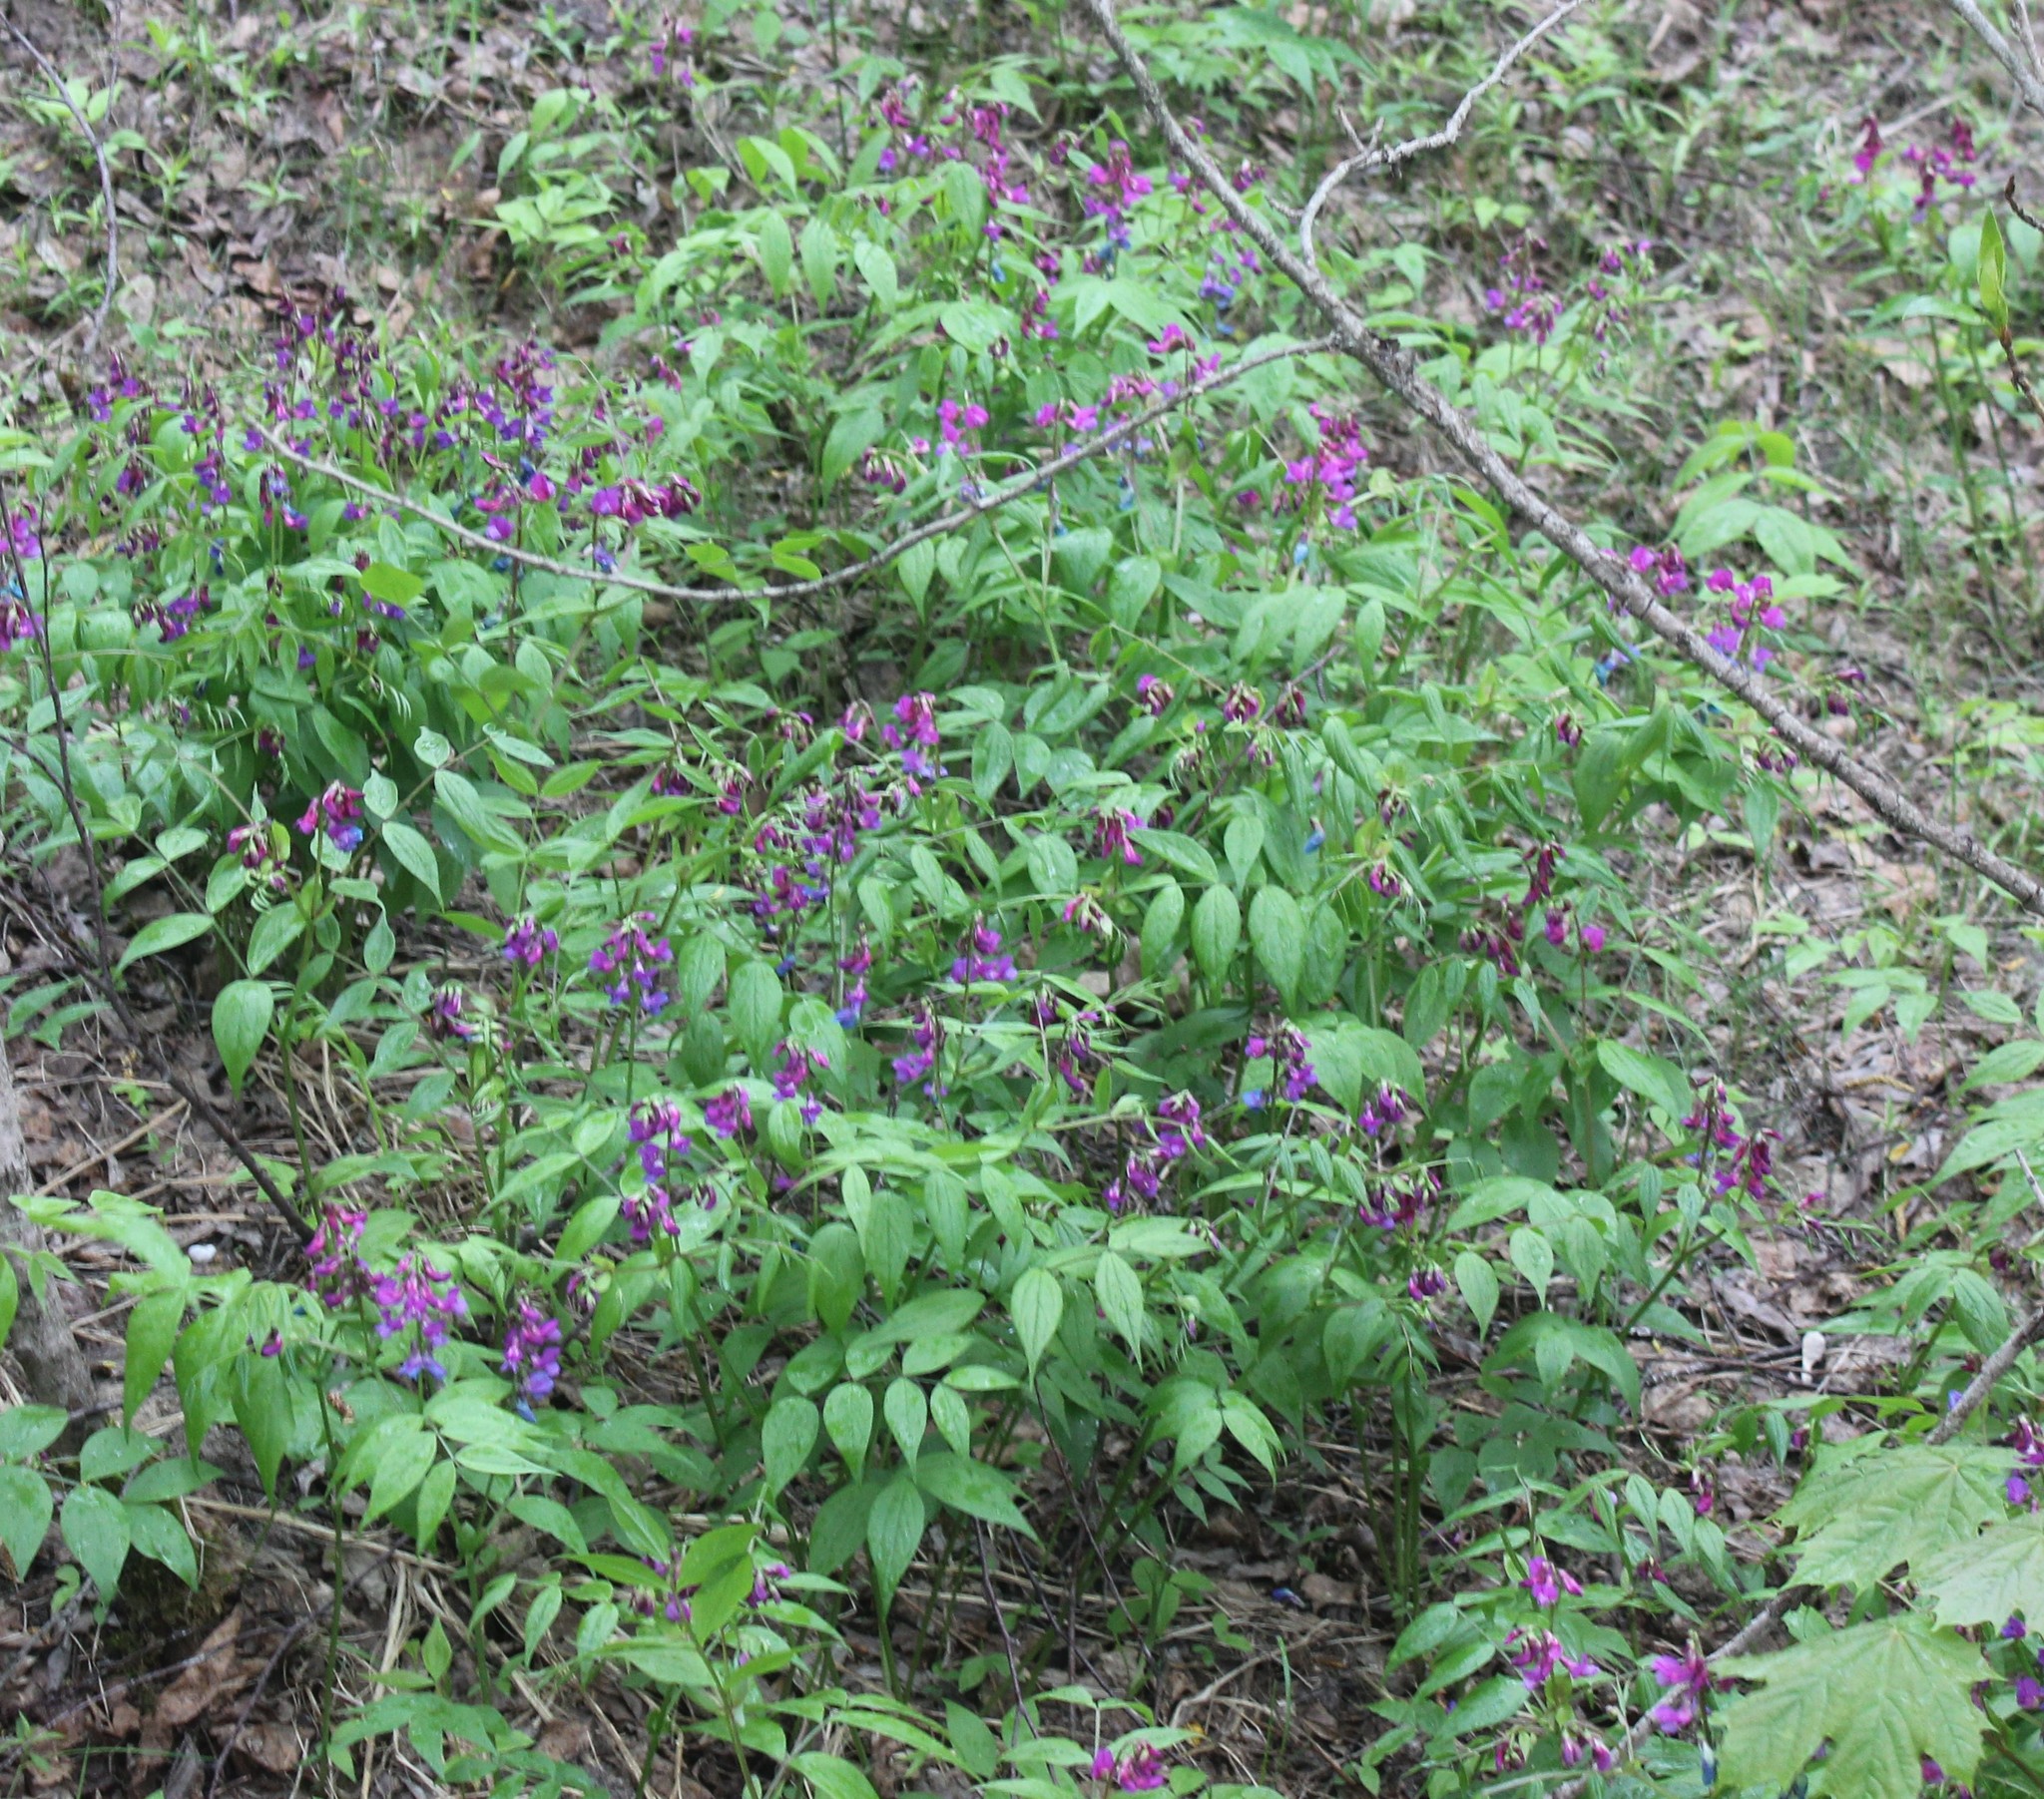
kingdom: Plantae
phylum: Tracheophyta
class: Magnoliopsida
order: Fabales
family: Fabaceae
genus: Lathyrus
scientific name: Lathyrus vernus
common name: Spring pea
